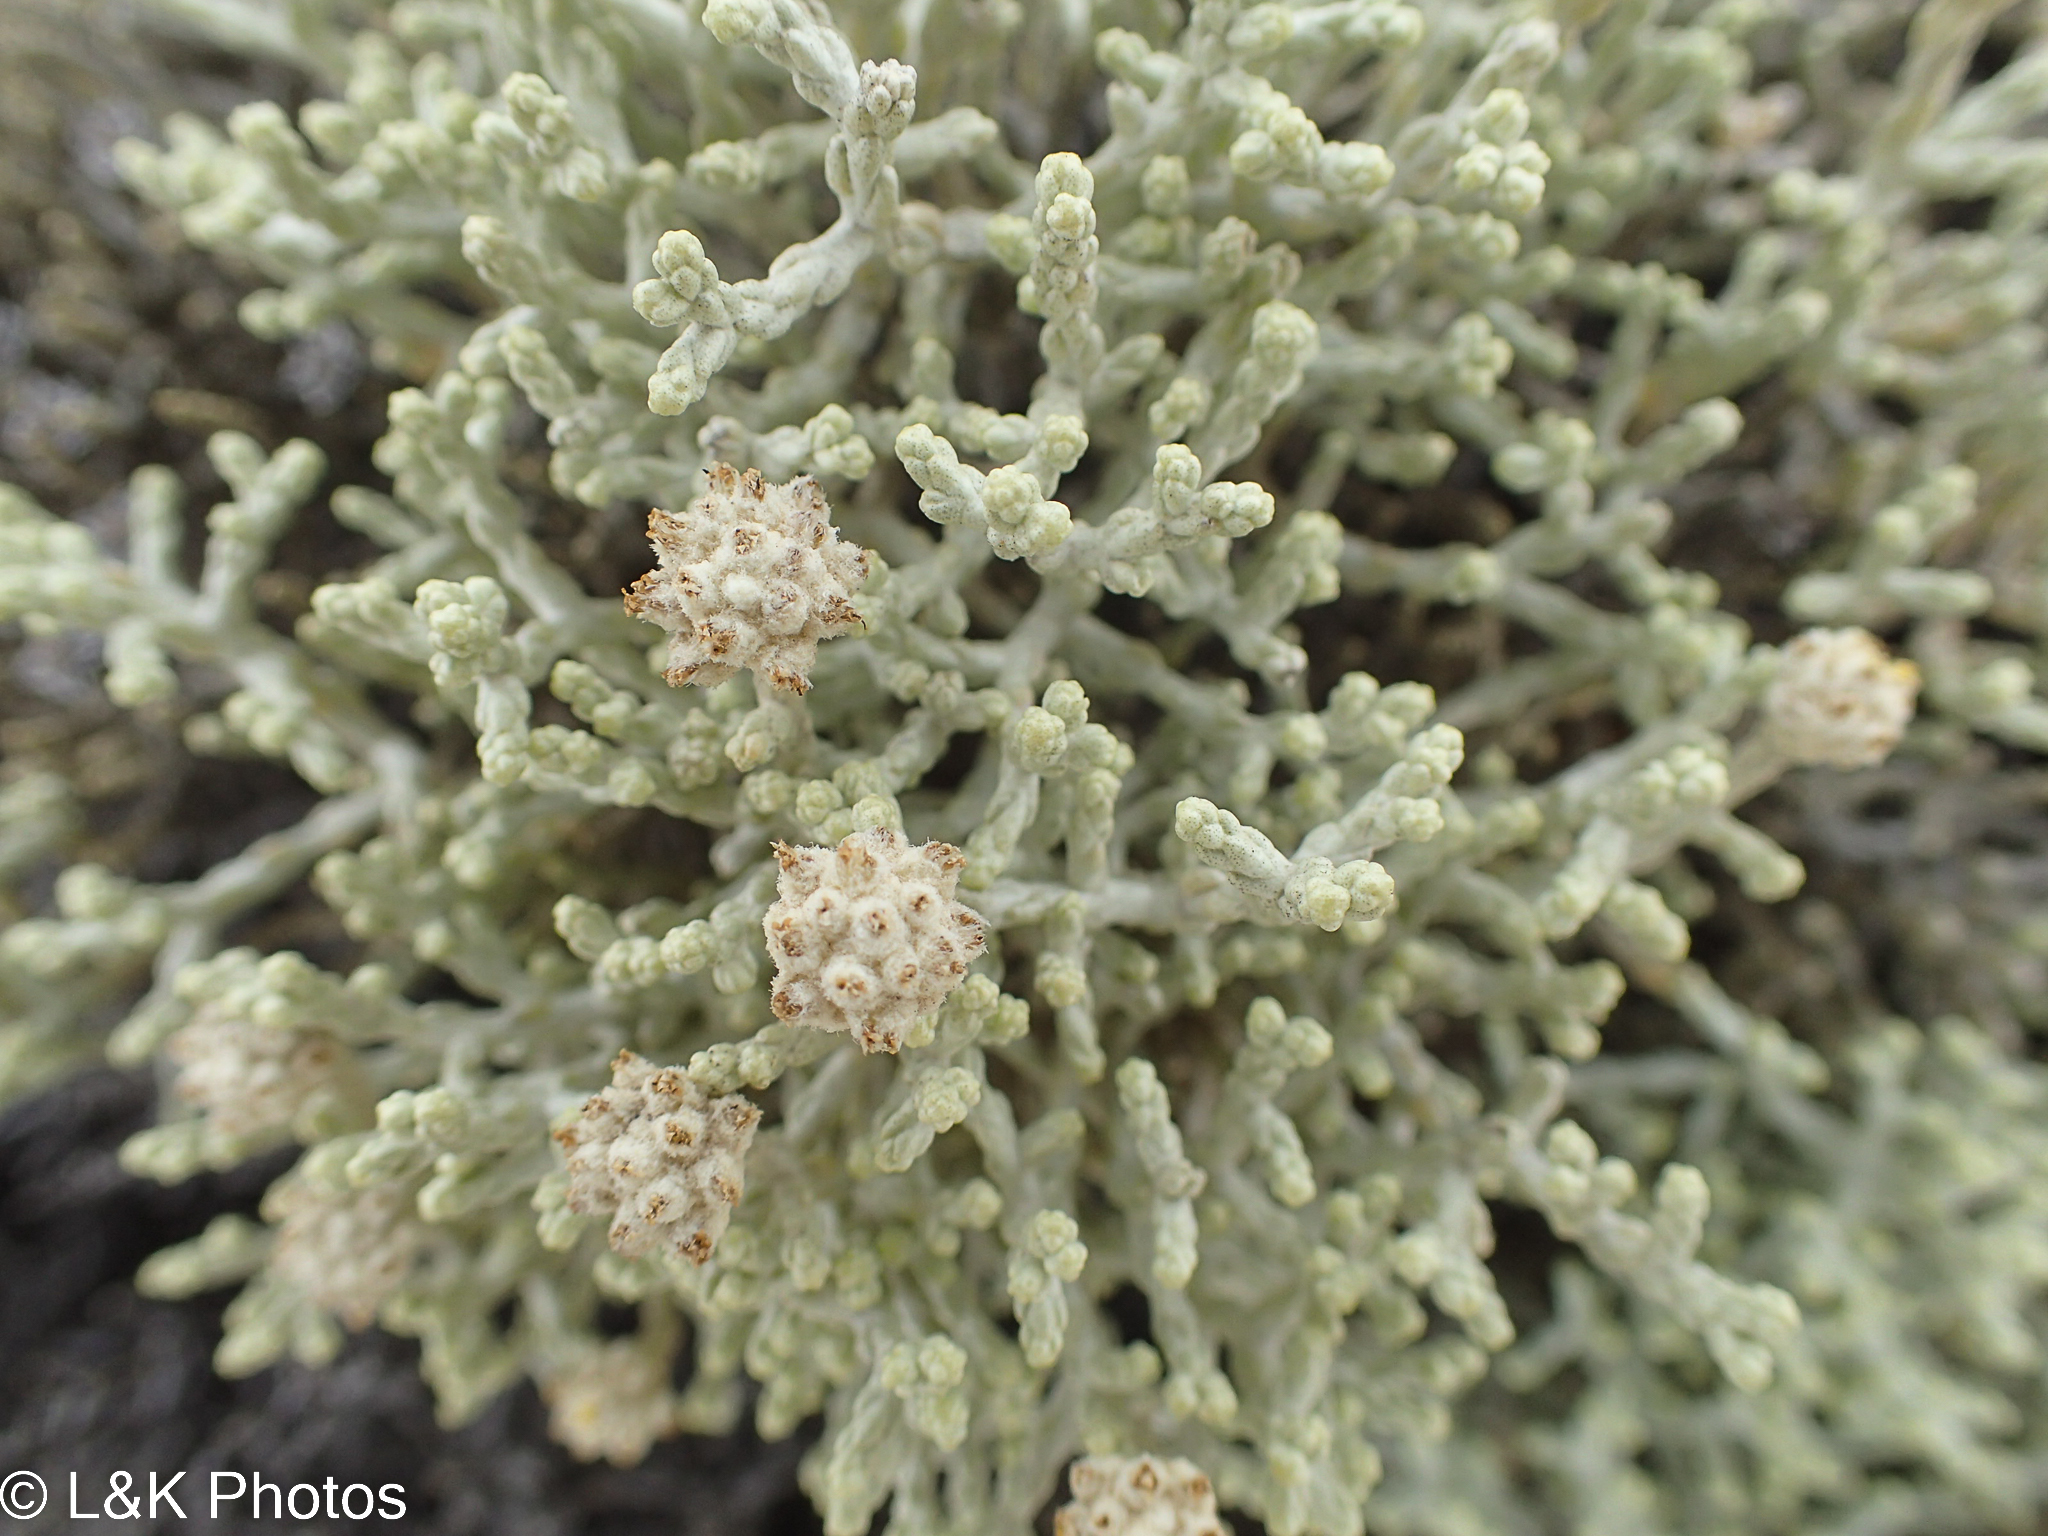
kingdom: Plantae
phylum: Tracheophyta
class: Magnoliopsida
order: Asterales
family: Asteraceae
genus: Calocephalus
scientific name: Calocephalus brownii
